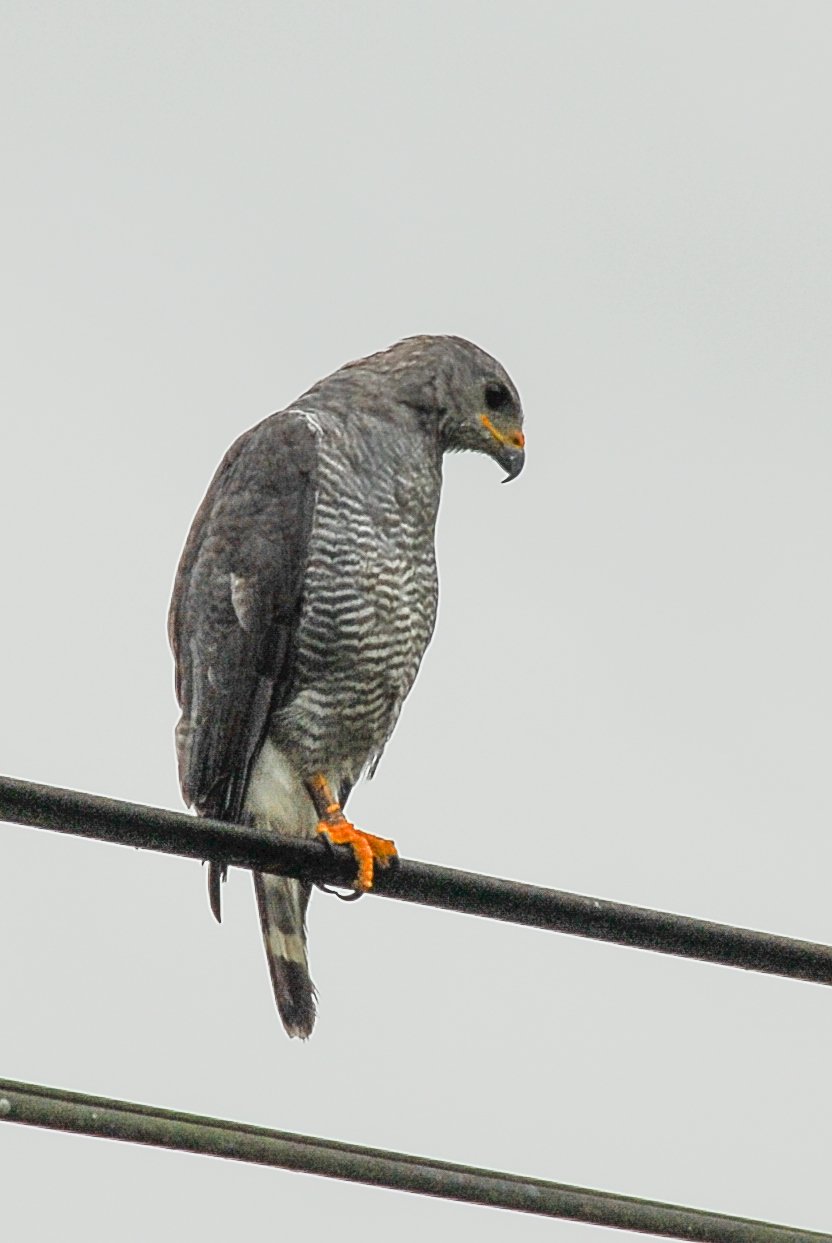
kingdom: Animalia
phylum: Chordata
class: Aves
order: Accipitriformes
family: Accipitridae
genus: Buteo
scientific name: Buteo nitidus
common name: Grey-lined hawk
